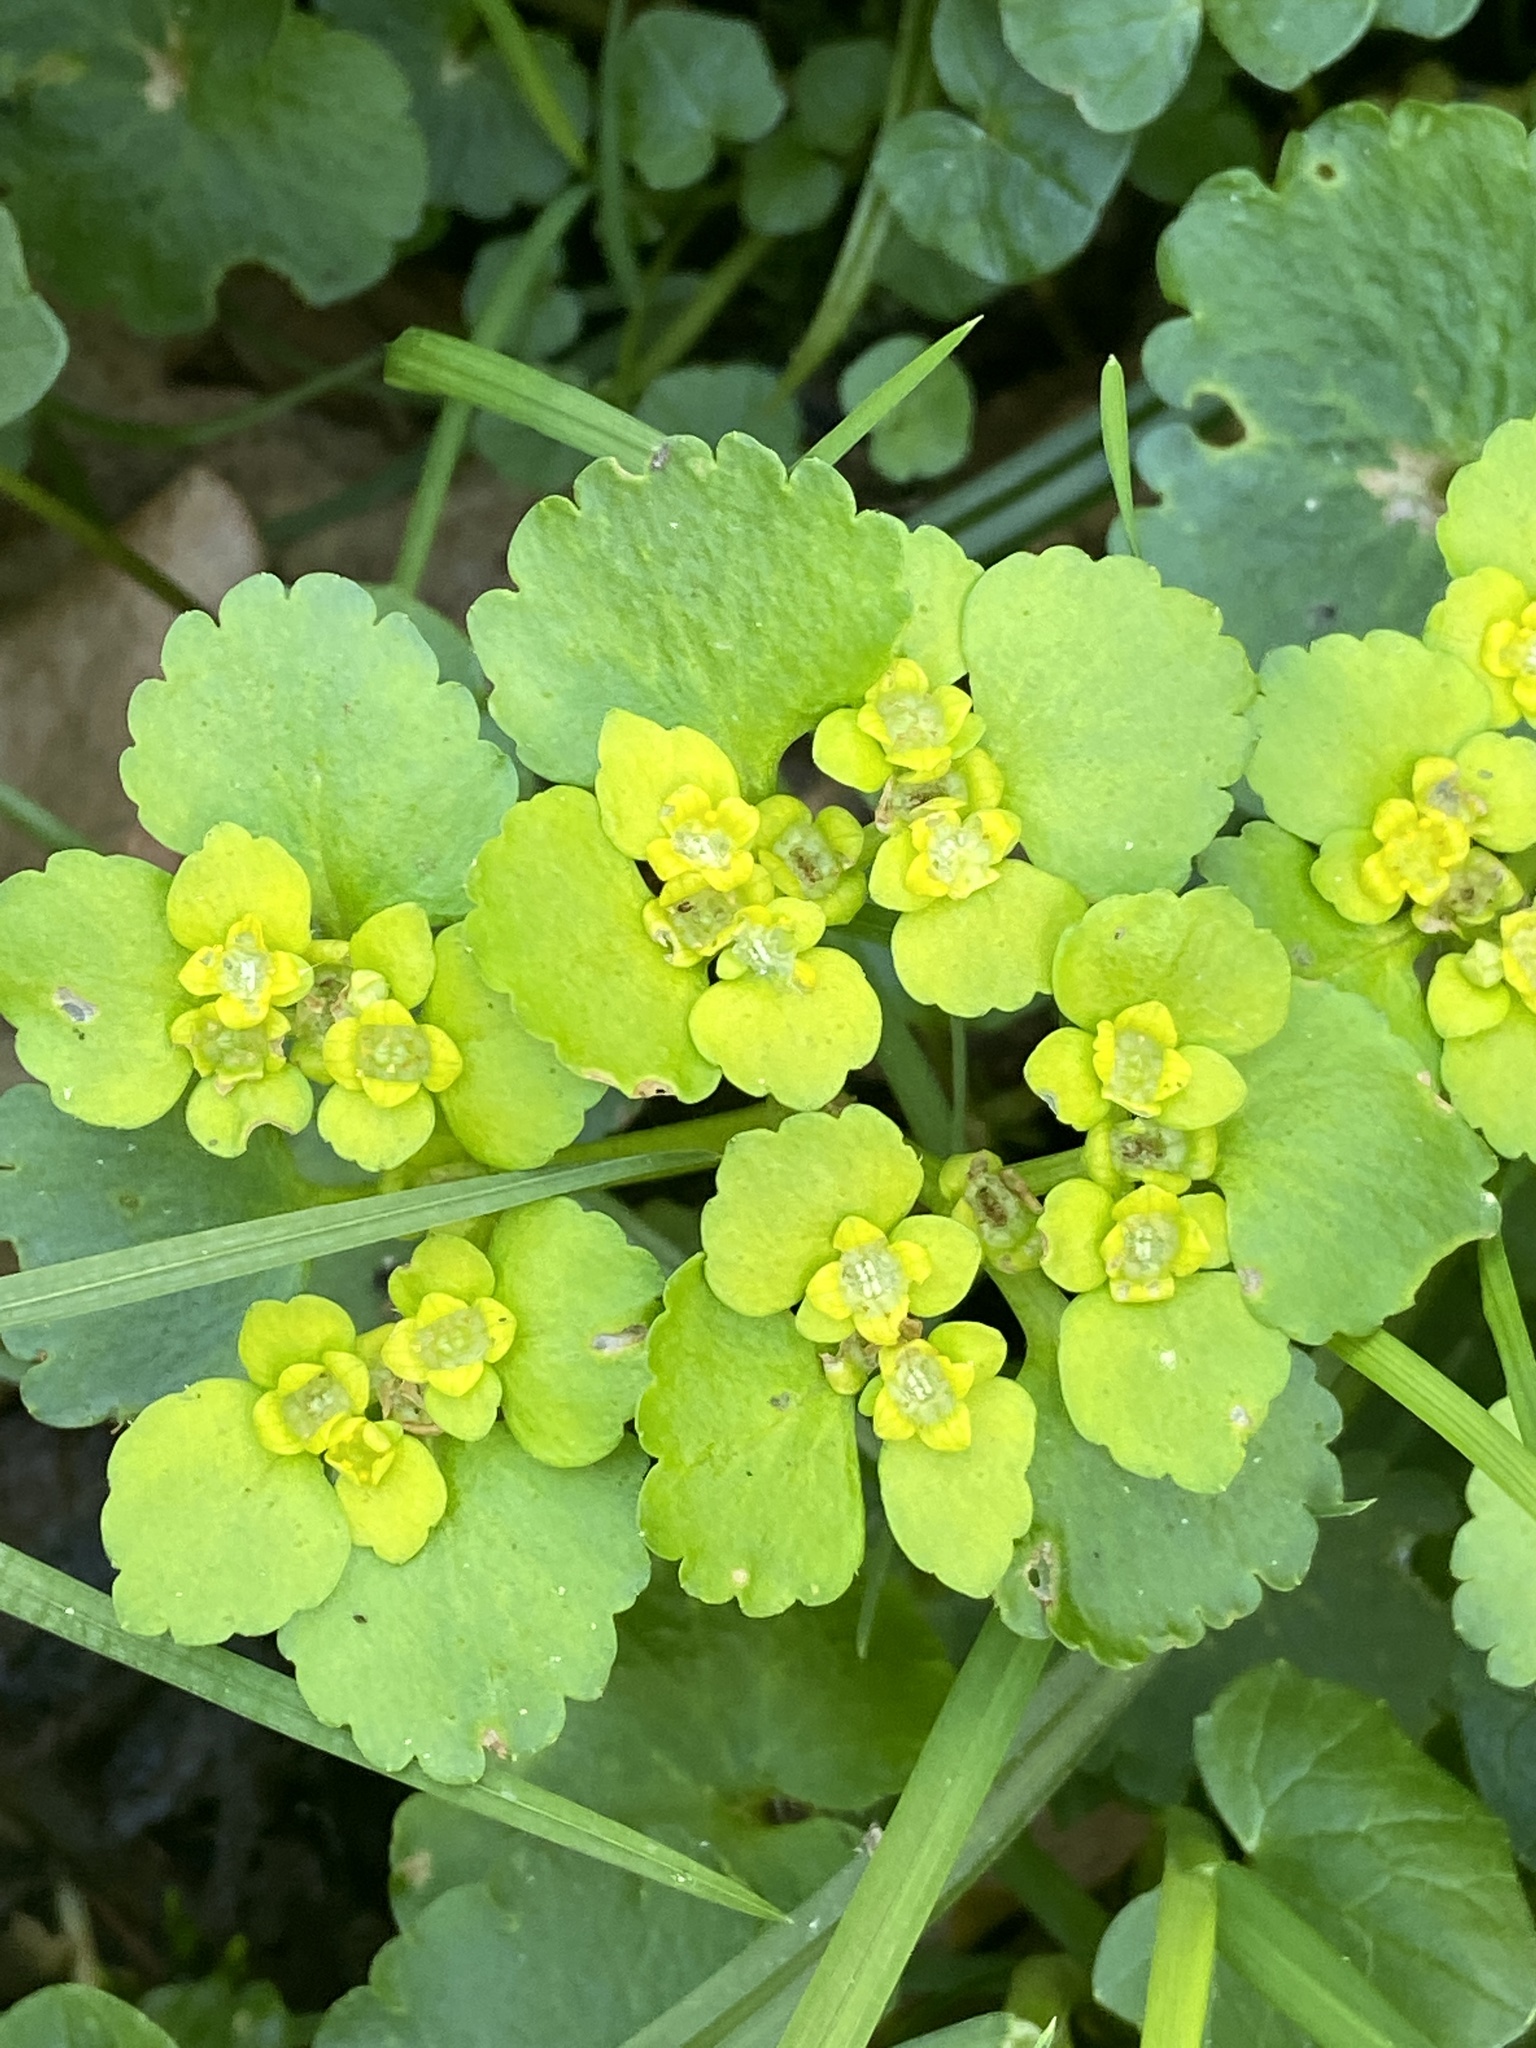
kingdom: Plantae
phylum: Tracheophyta
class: Magnoliopsida
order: Saxifragales
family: Saxifragaceae
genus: Chrysosplenium
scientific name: Chrysosplenium alternifolium
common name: Alternate-leaved golden-saxifrage
